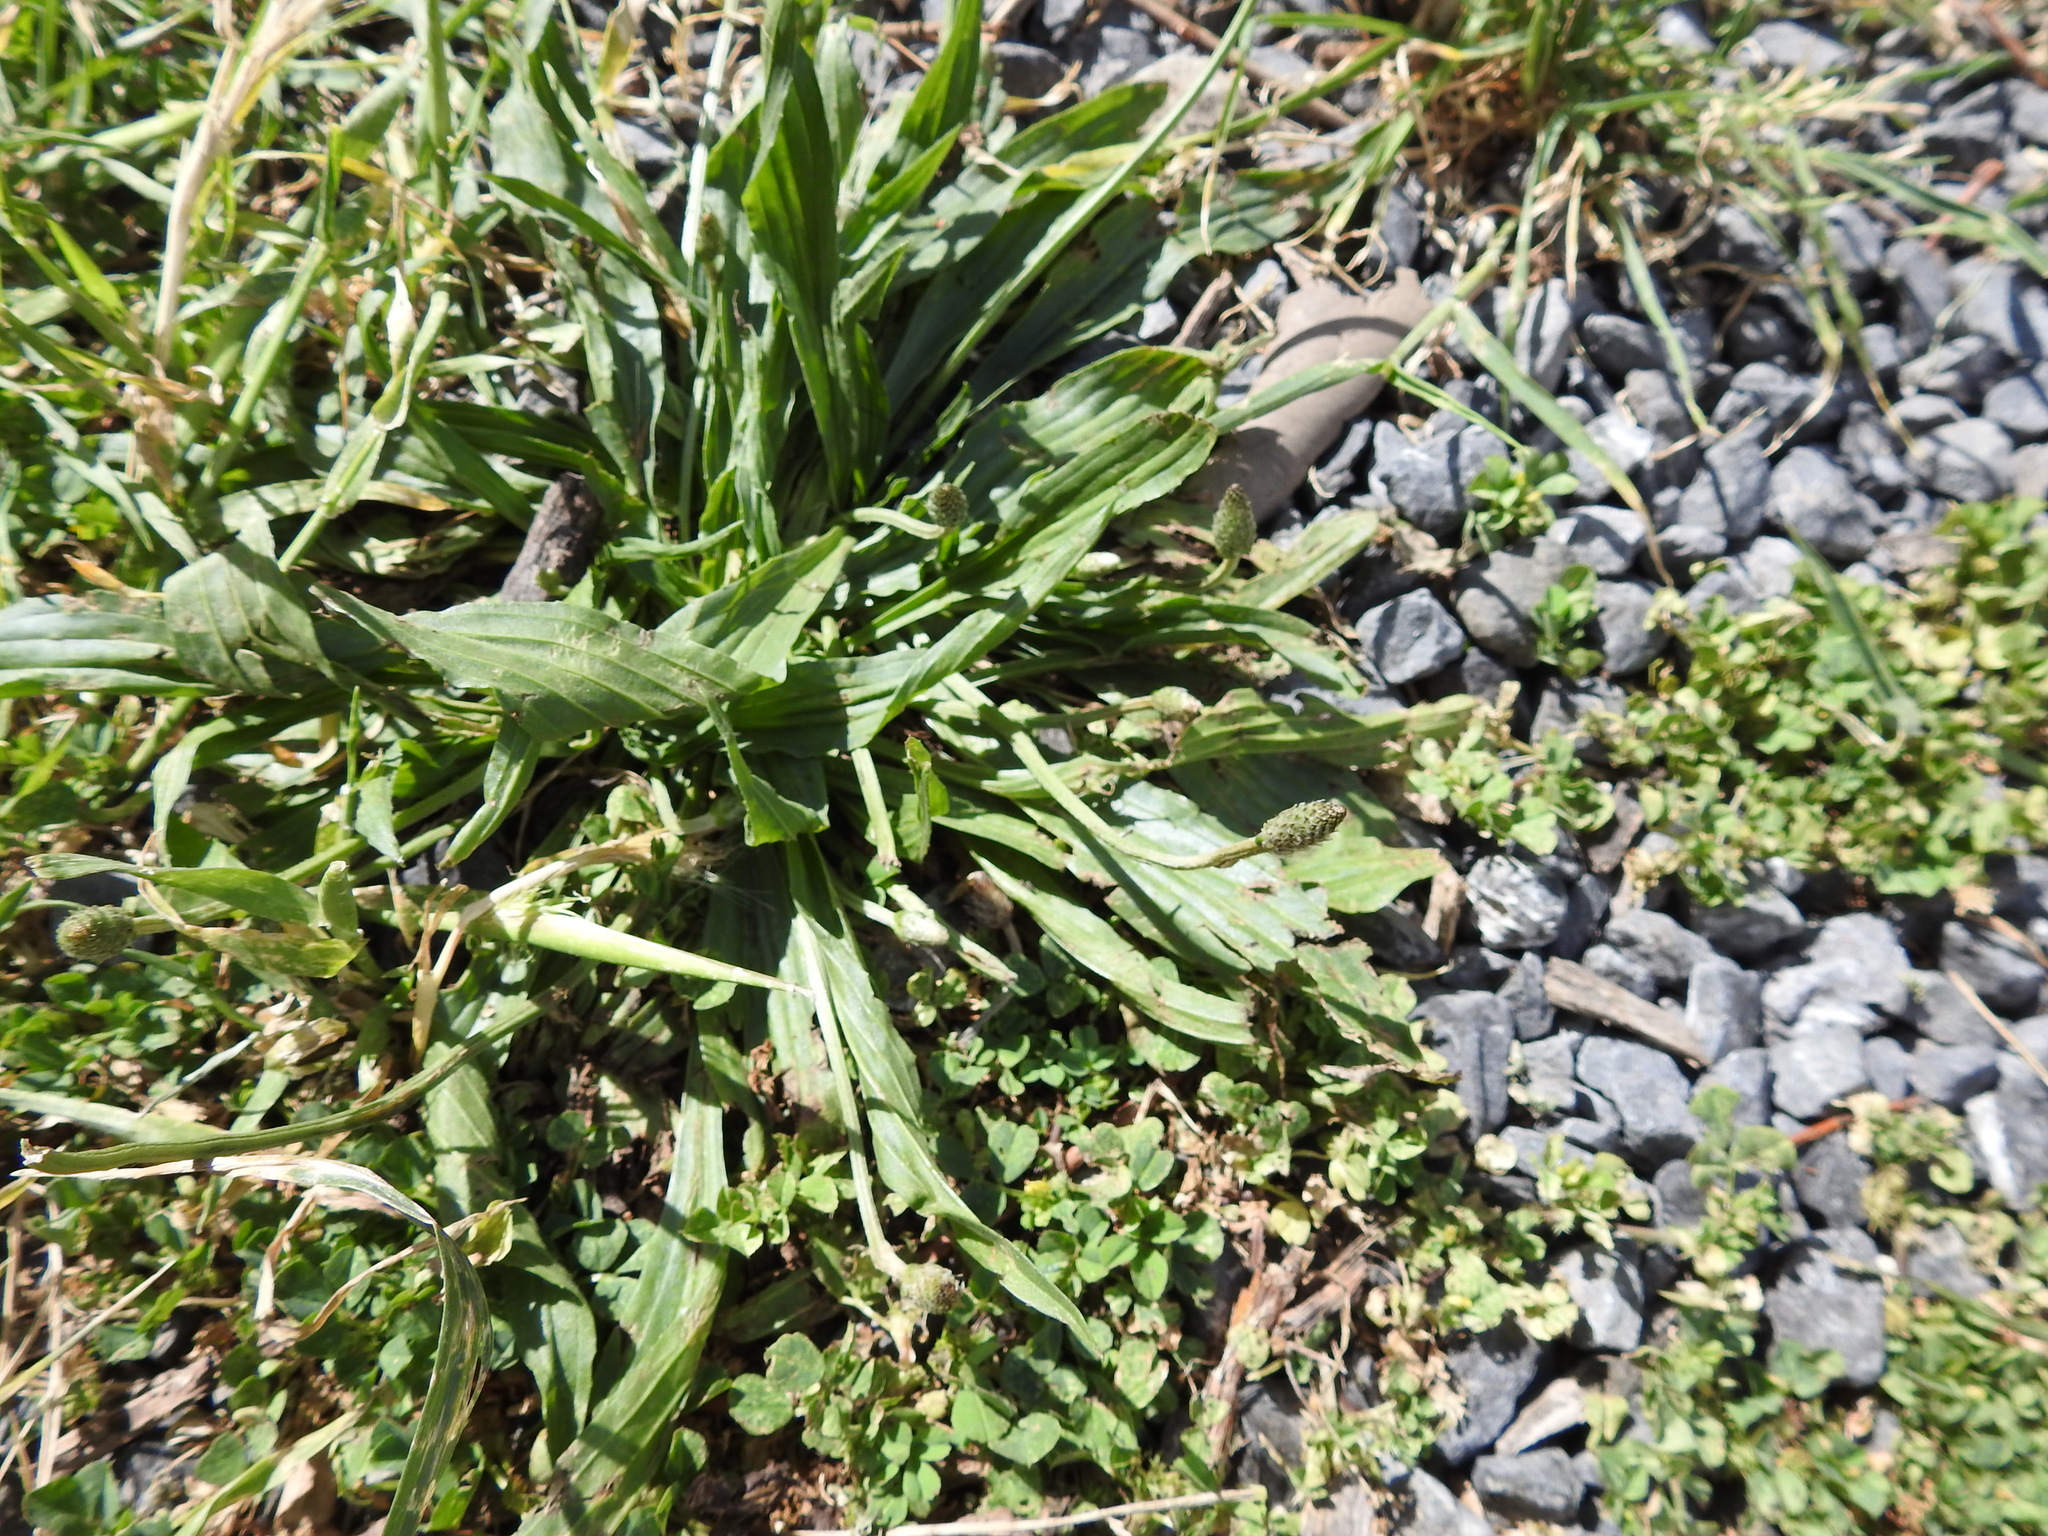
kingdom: Plantae
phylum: Tracheophyta
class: Magnoliopsida
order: Lamiales
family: Plantaginaceae
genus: Plantago
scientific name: Plantago lanceolata
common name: Ribwort plantain
